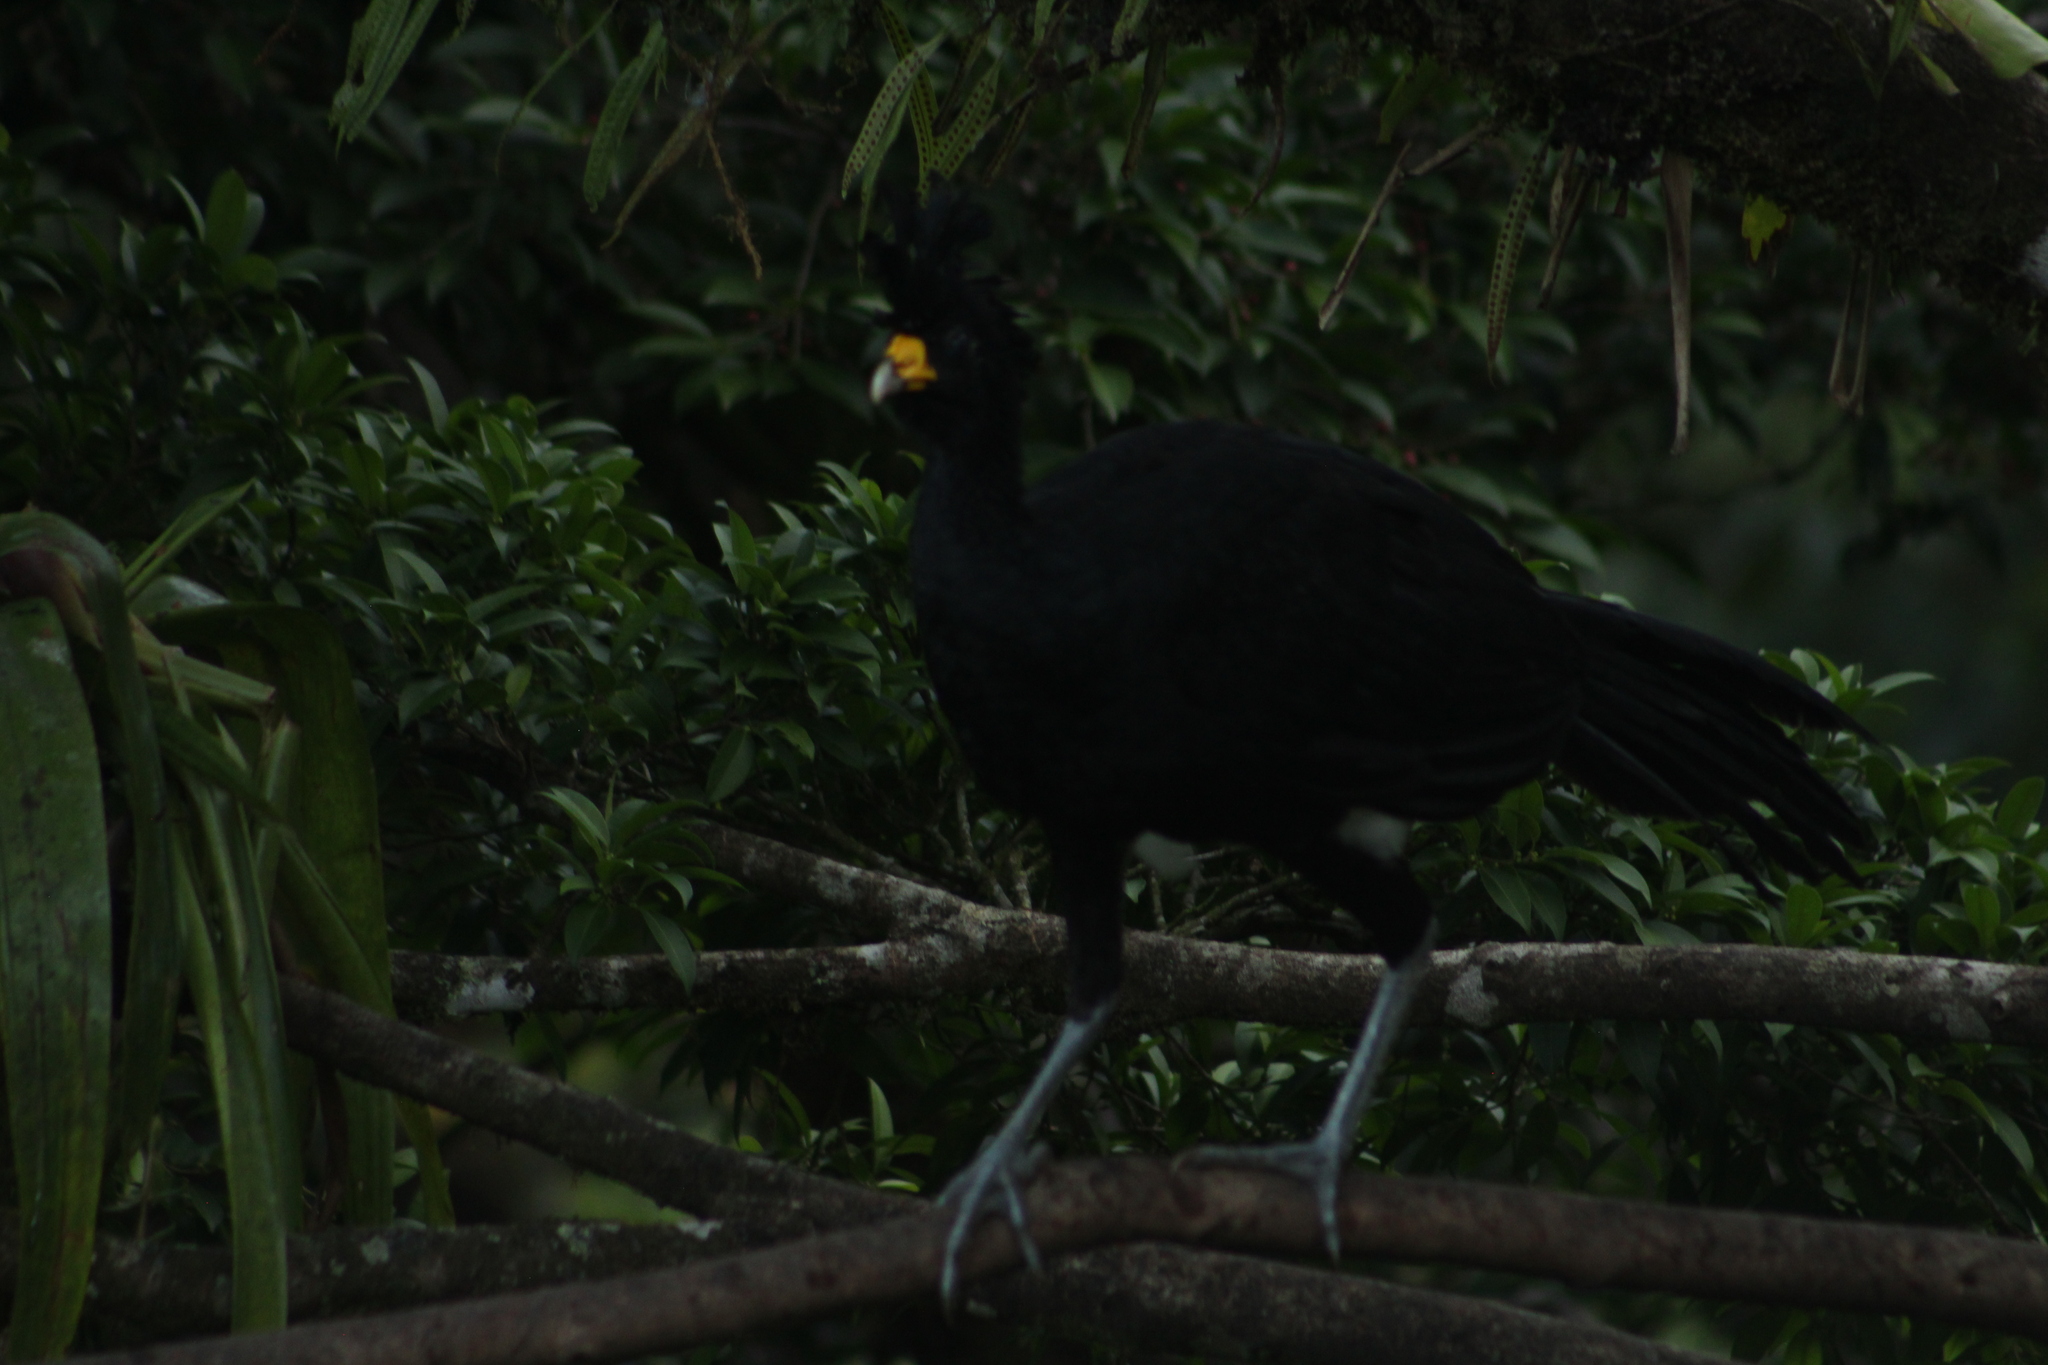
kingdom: Animalia
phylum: Chordata
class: Aves
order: Galliformes
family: Cracidae
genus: Crax
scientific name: Crax rubra
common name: Great curassow
